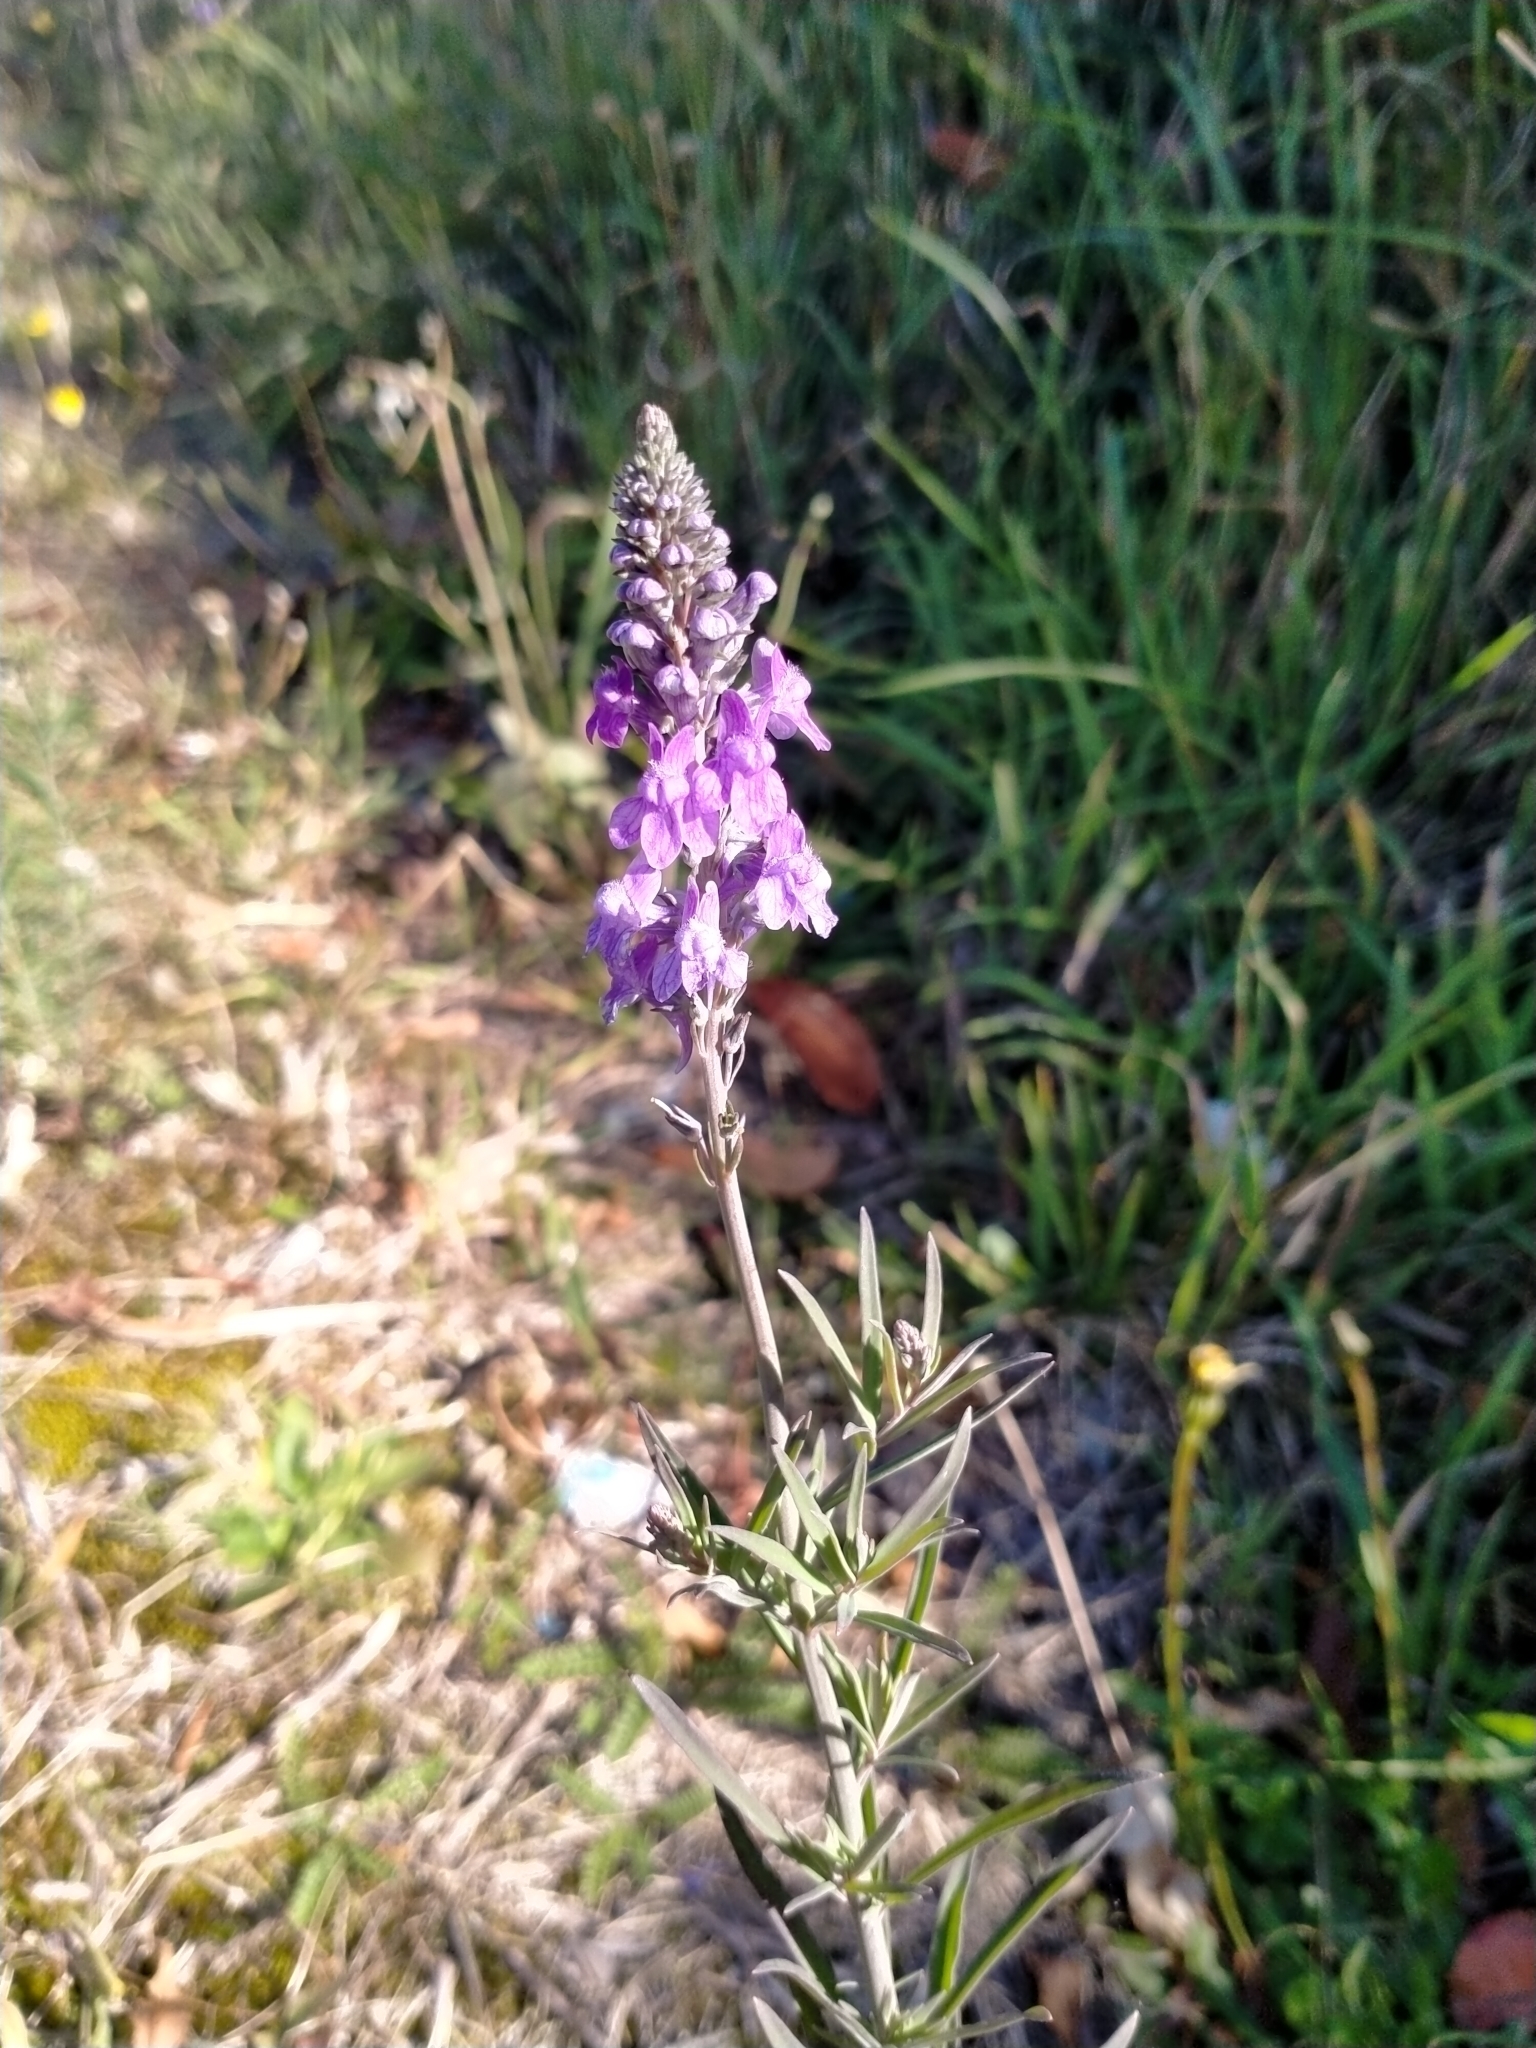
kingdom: Plantae
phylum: Tracheophyta
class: Magnoliopsida
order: Lamiales
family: Plantaginaceae
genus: Linaria
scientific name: Linaria purpurea
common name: Purple toadflax
